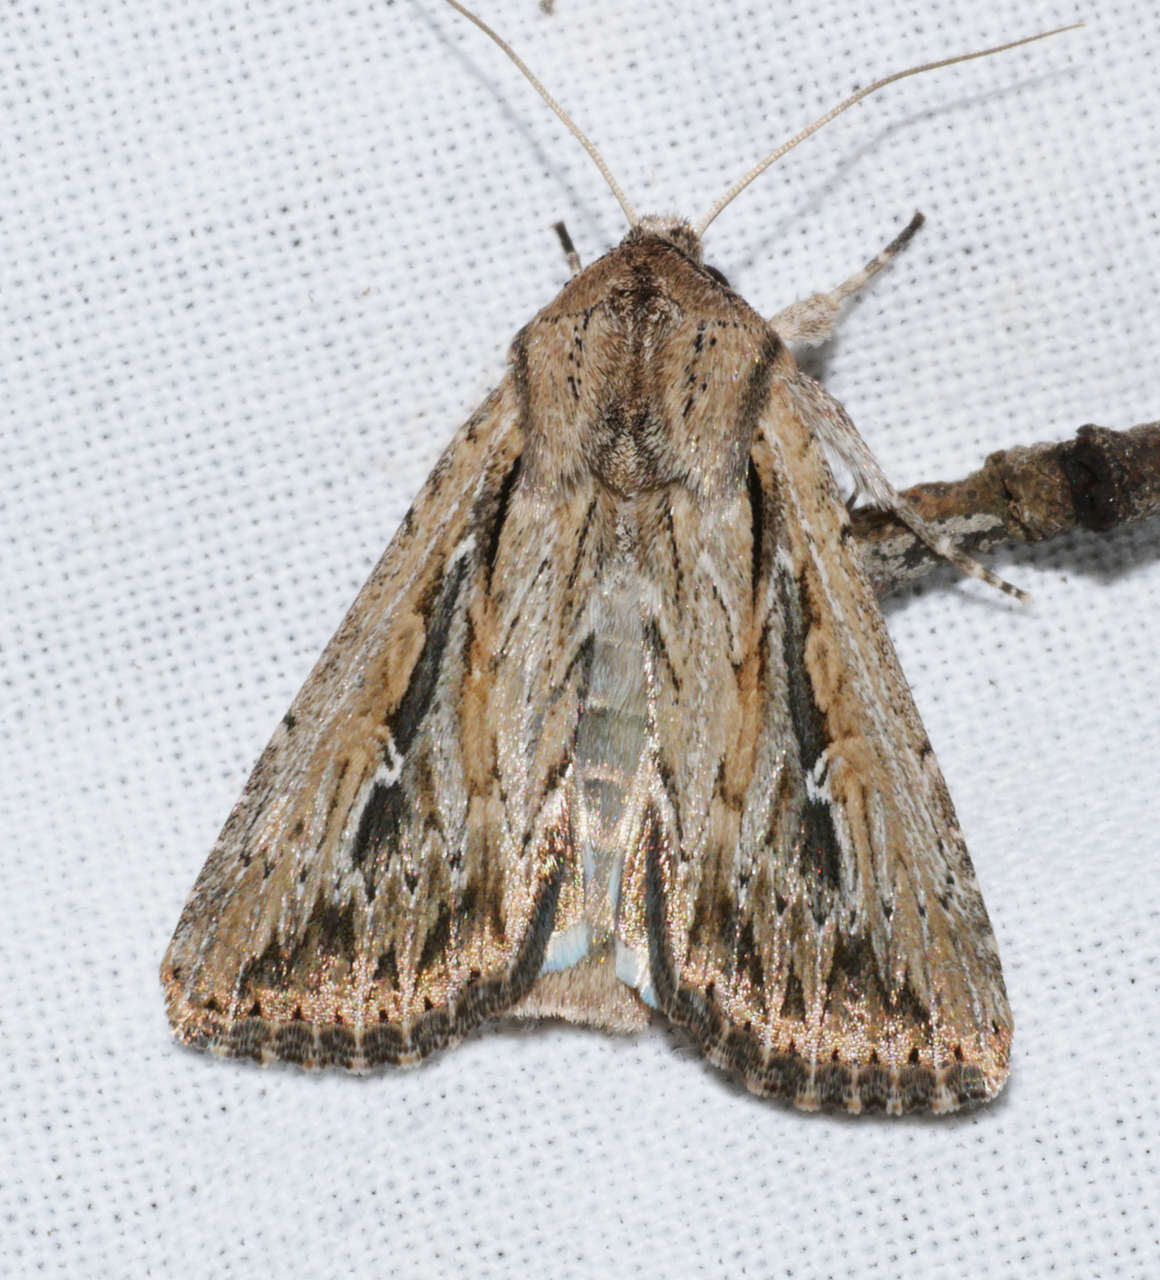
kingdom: Animalia
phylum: Arthropoda
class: Insecta
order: Lepidoptera
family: Noctuidae
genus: Persectania
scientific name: Persectania dyscrita
